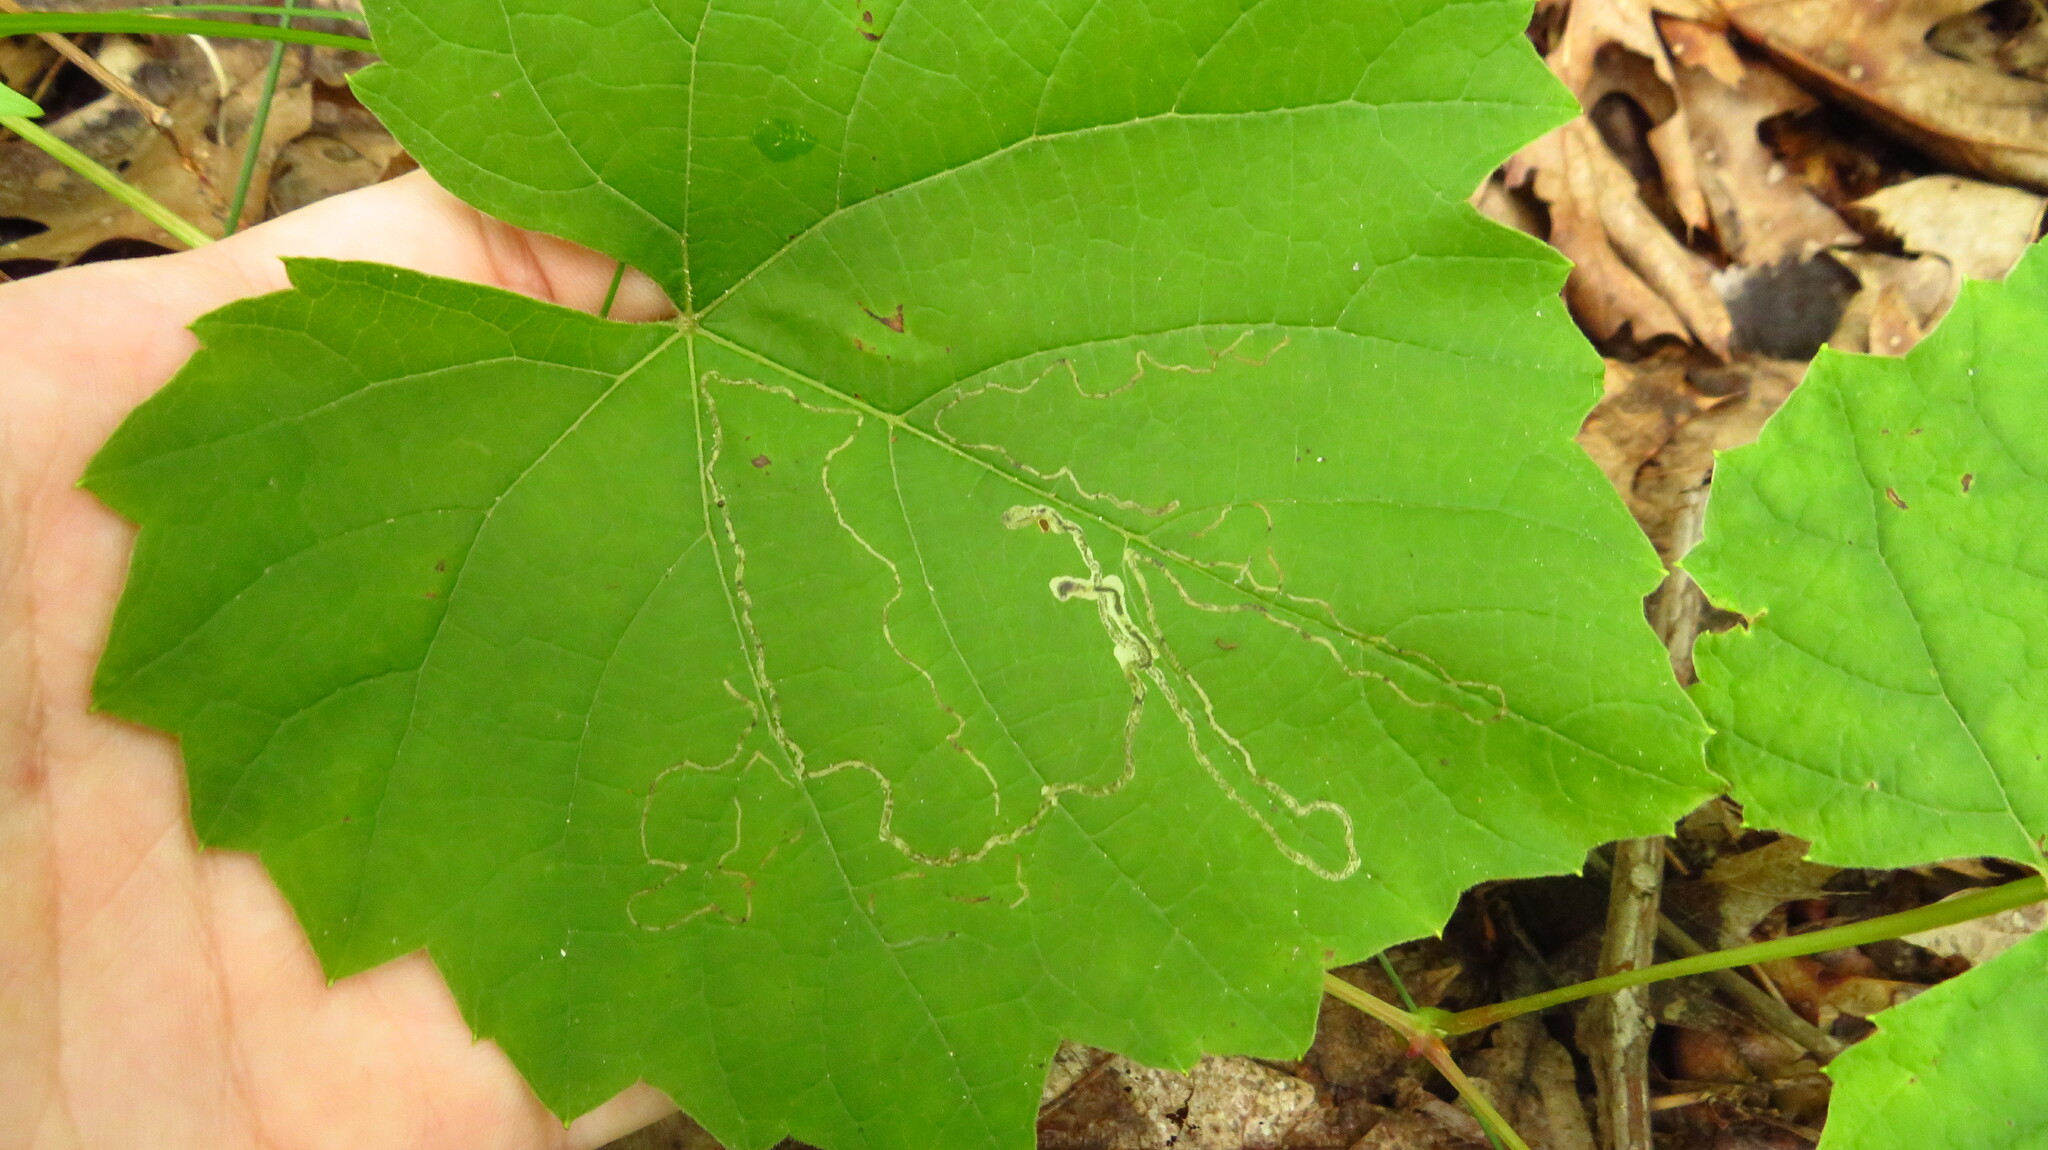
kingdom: Animalia
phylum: Arthropoda
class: Insecta
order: Lepidoptera
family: Gracillariidae
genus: Phyllocnistis
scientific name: Phyllocnistis vitifoliella
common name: Grape leaf-miner moth
